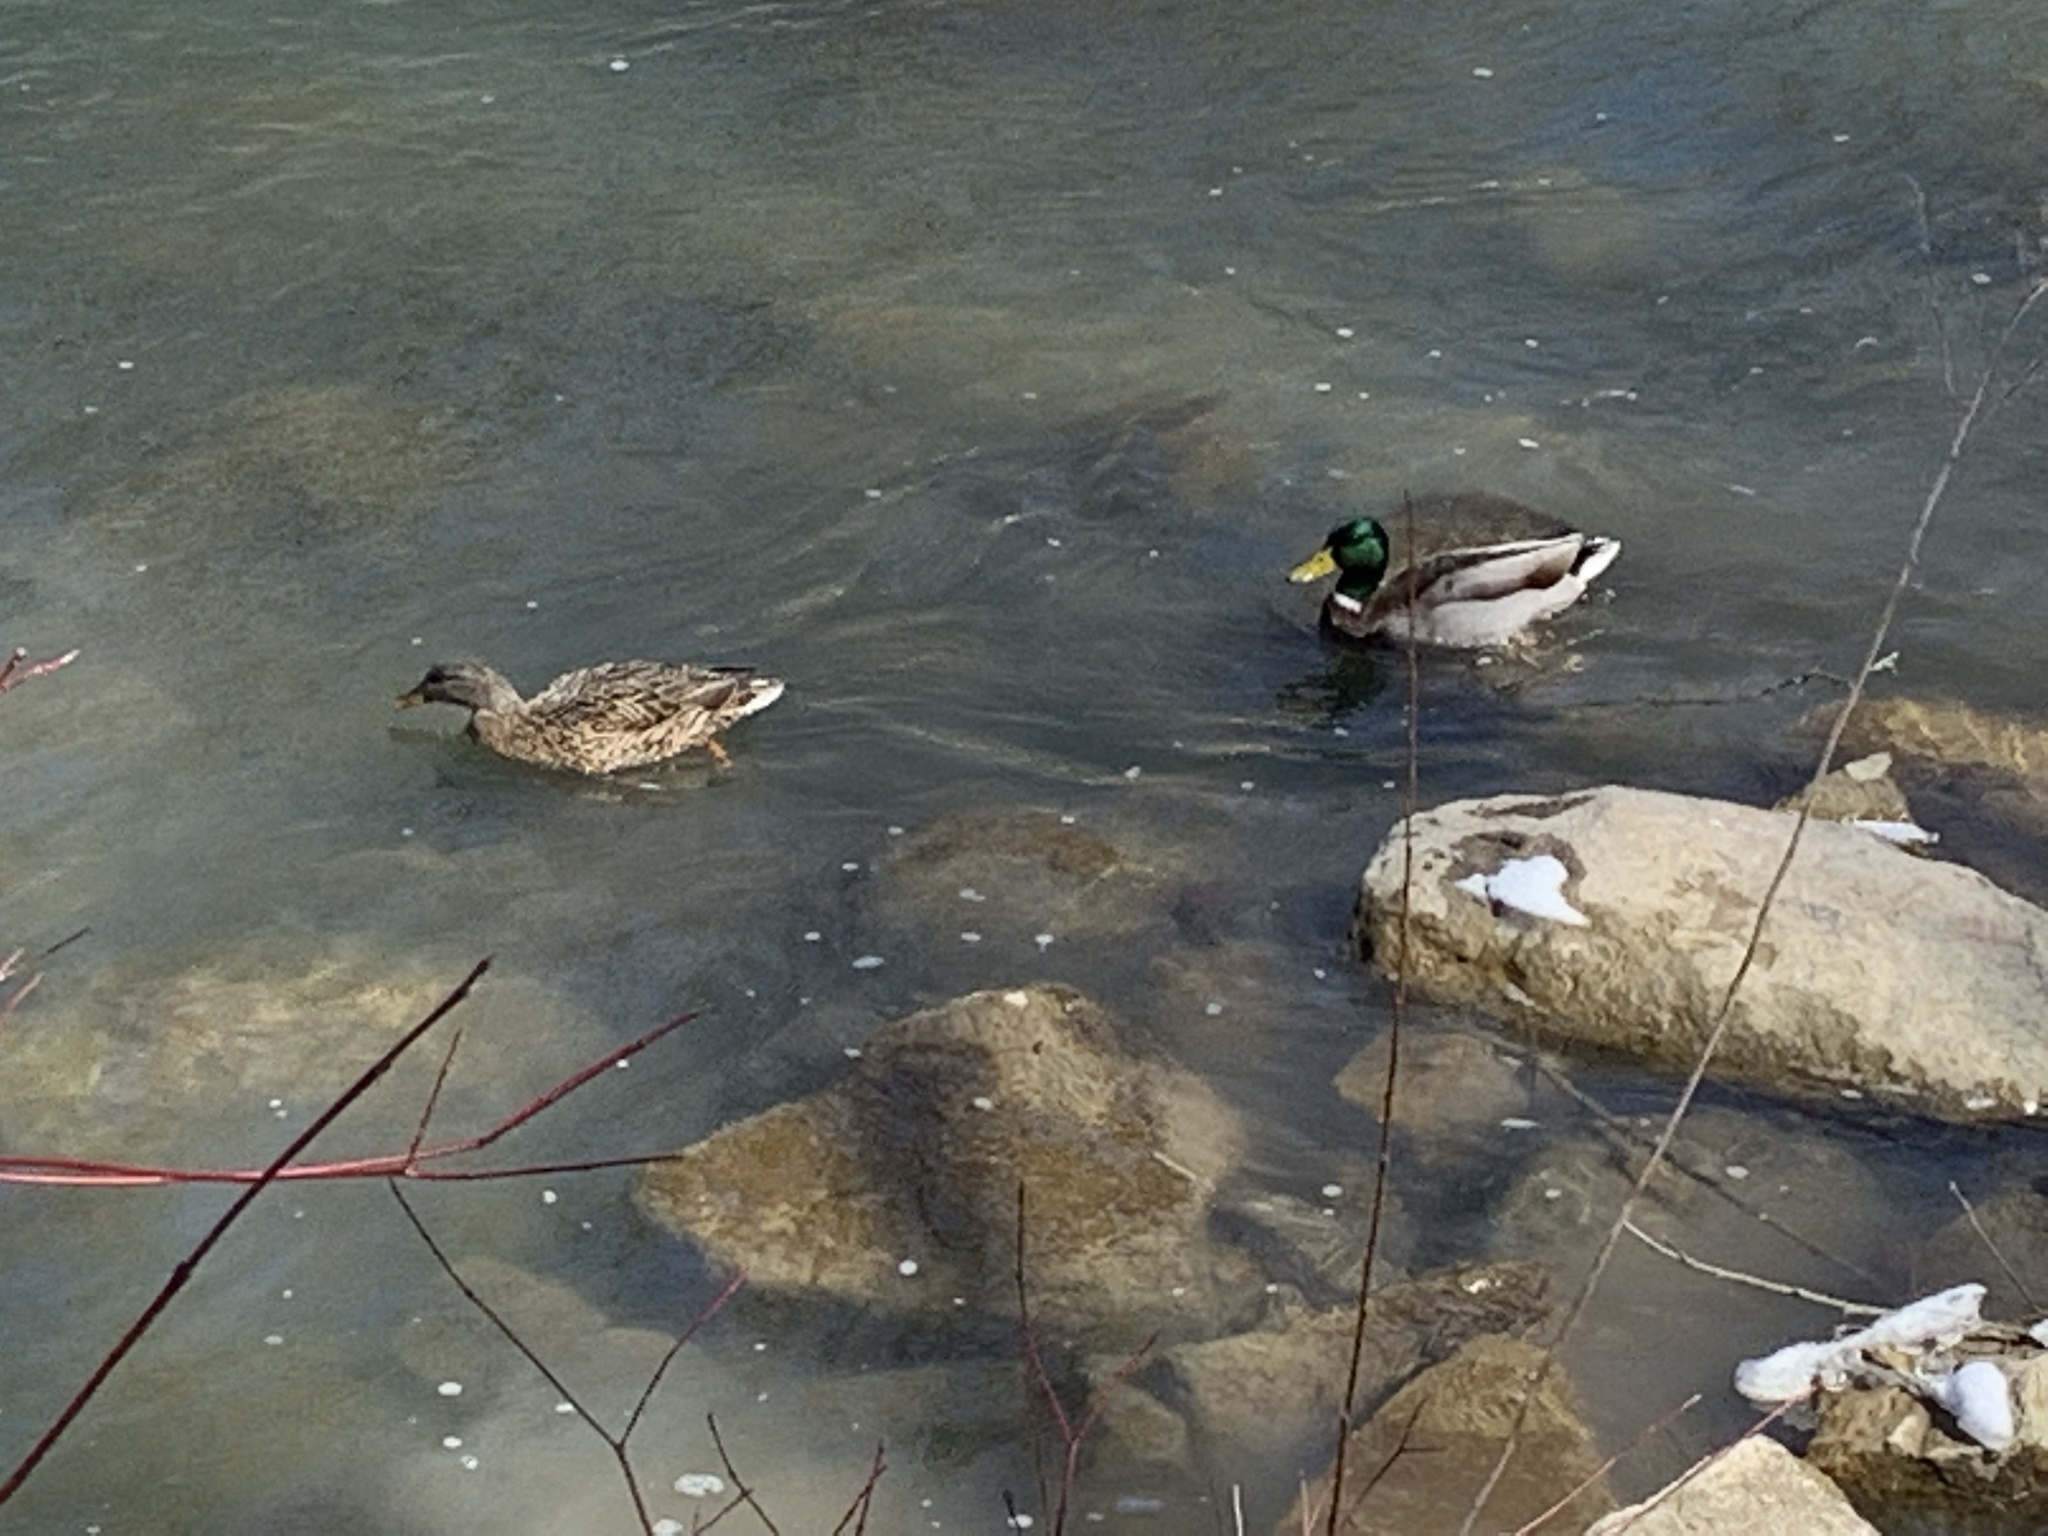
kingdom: Animalia
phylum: Chordata
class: Aves
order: Anseriformes
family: Anatidae
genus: Anas
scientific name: Anas platyrhynchos
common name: Mallard
